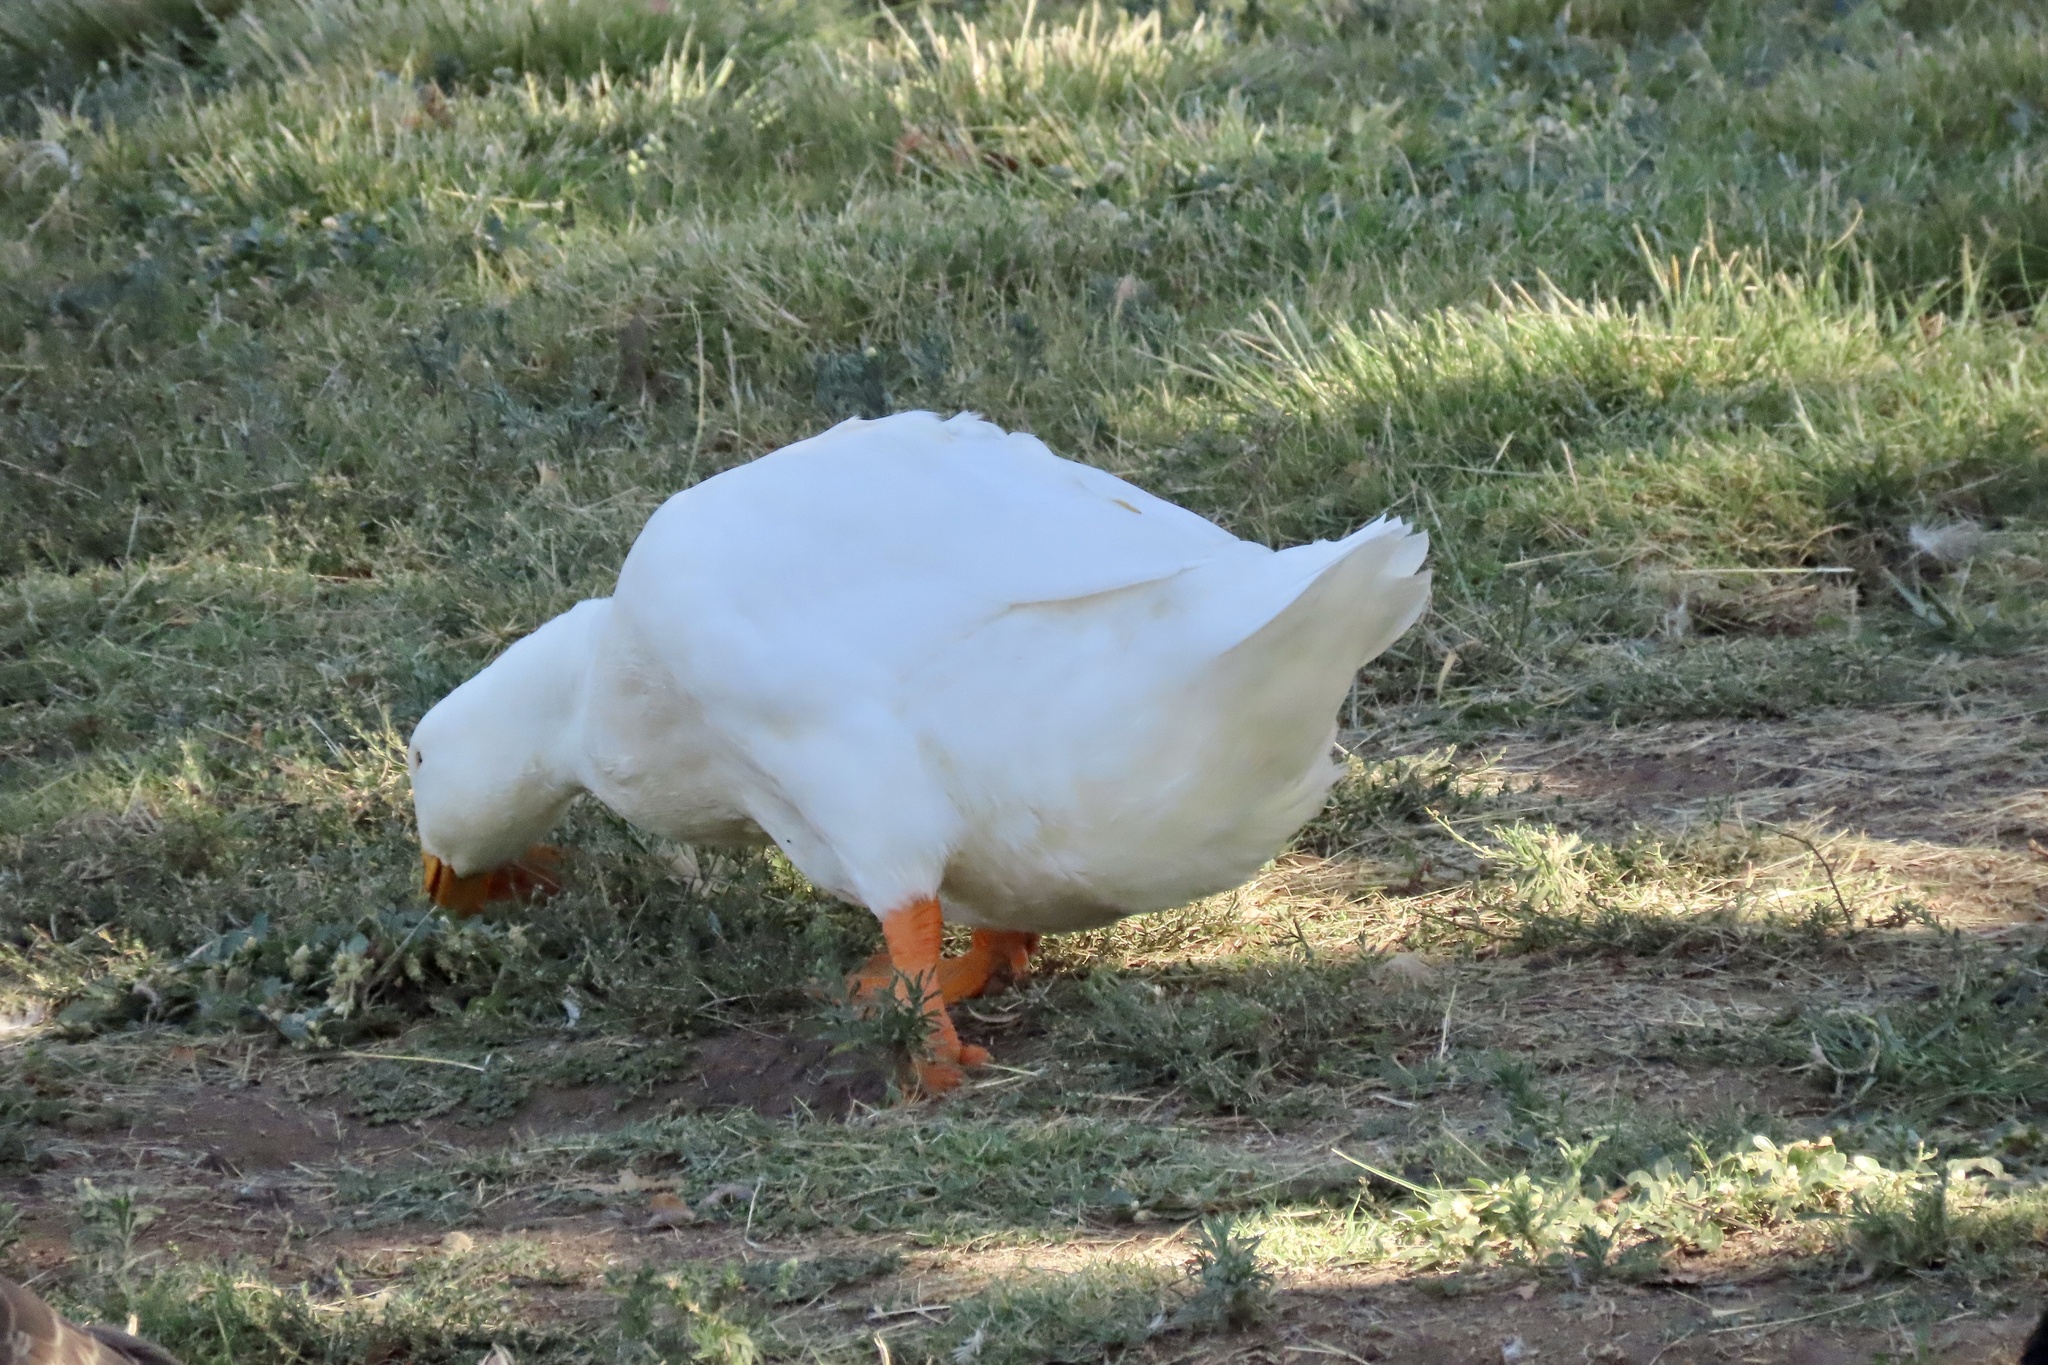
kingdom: Animalia
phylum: Chordata
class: Aves
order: Anseriformes
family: Anatidae
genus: Anas
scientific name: Anas platyrhynchos
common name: Mallard
